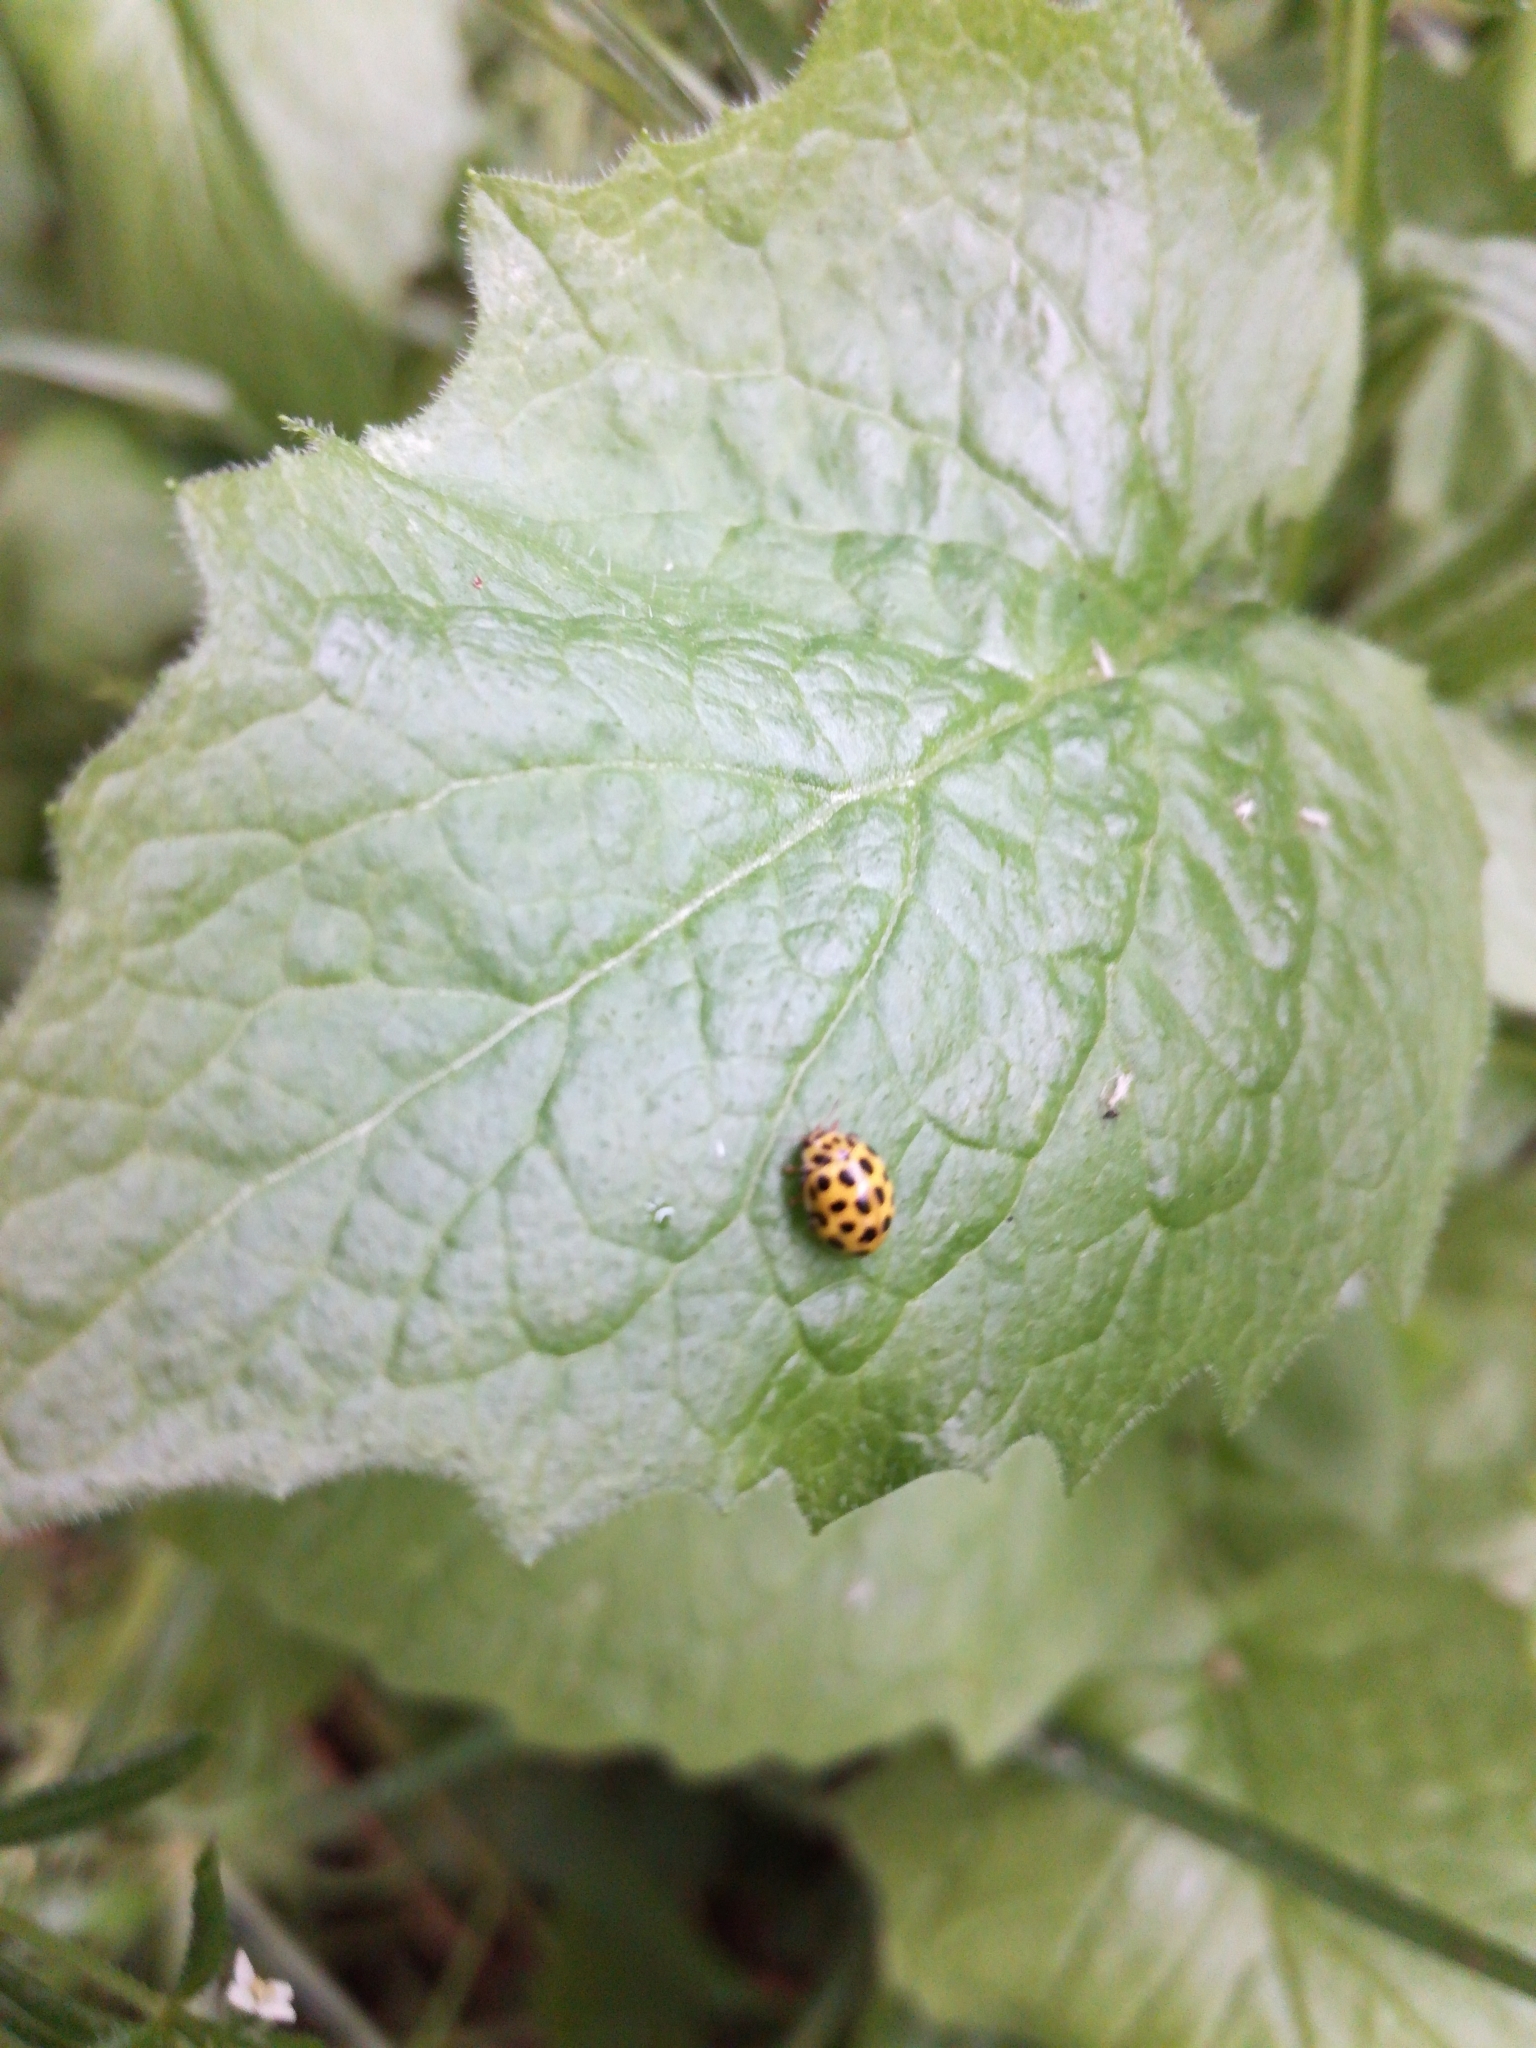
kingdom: Animalia
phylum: Arthropoda
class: Insecta
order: Coleoptera
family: Coccinellidae
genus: Psyllobora
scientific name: Psyllobora vigintiduopunctata
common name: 22-spot ladybird
